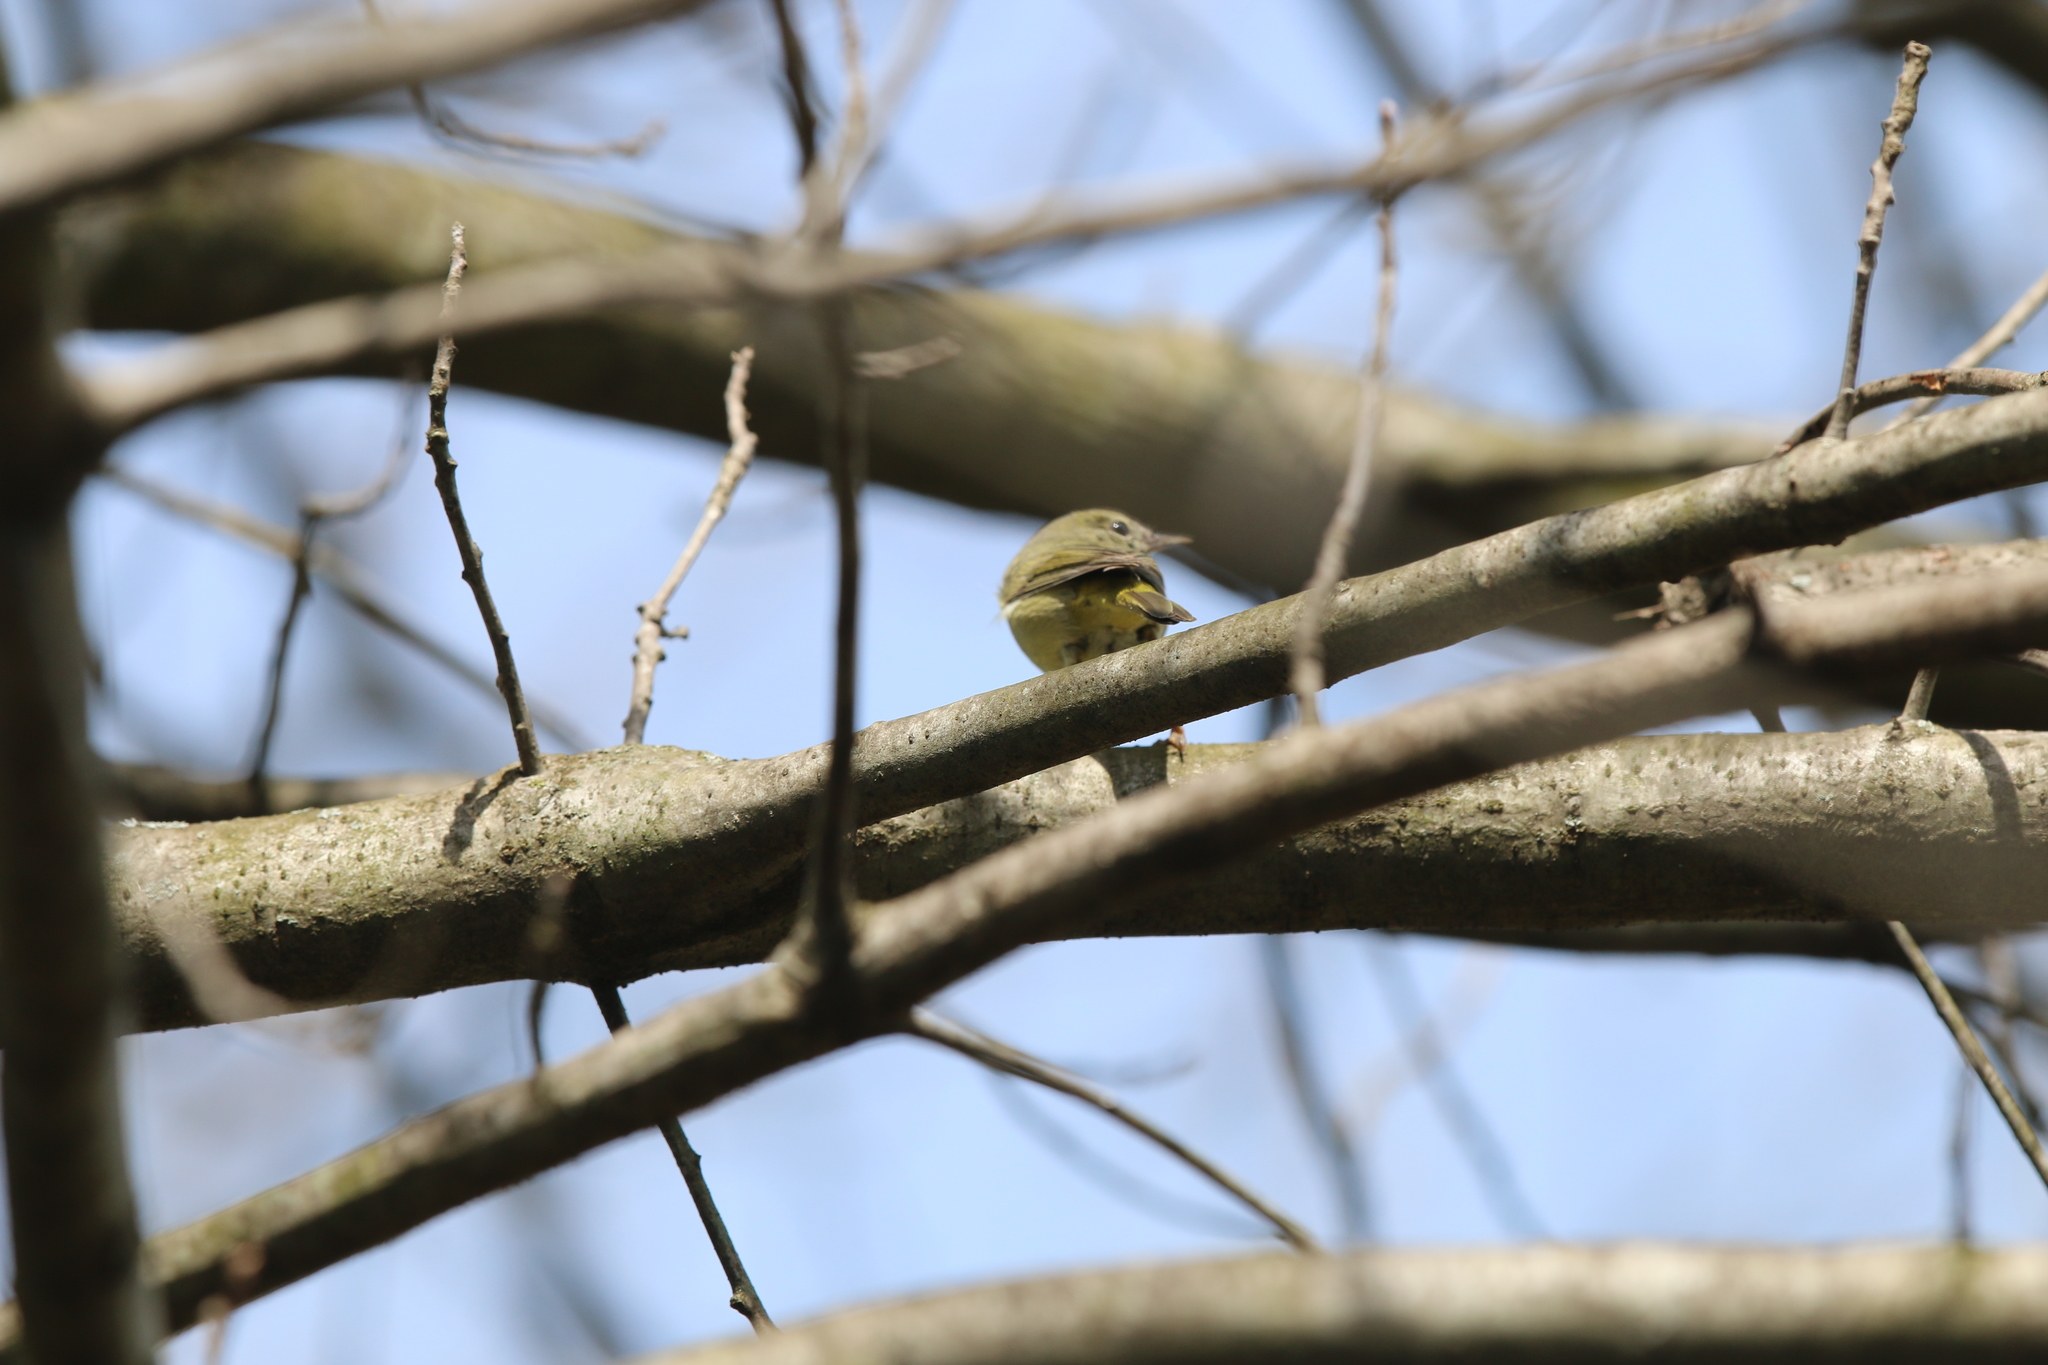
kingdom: Animalia
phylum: Chordata
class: Aves
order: Passeriformes
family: Parulidae
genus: Leiothlypis
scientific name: Leiothlypis celata
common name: Orange-crowned warbler
